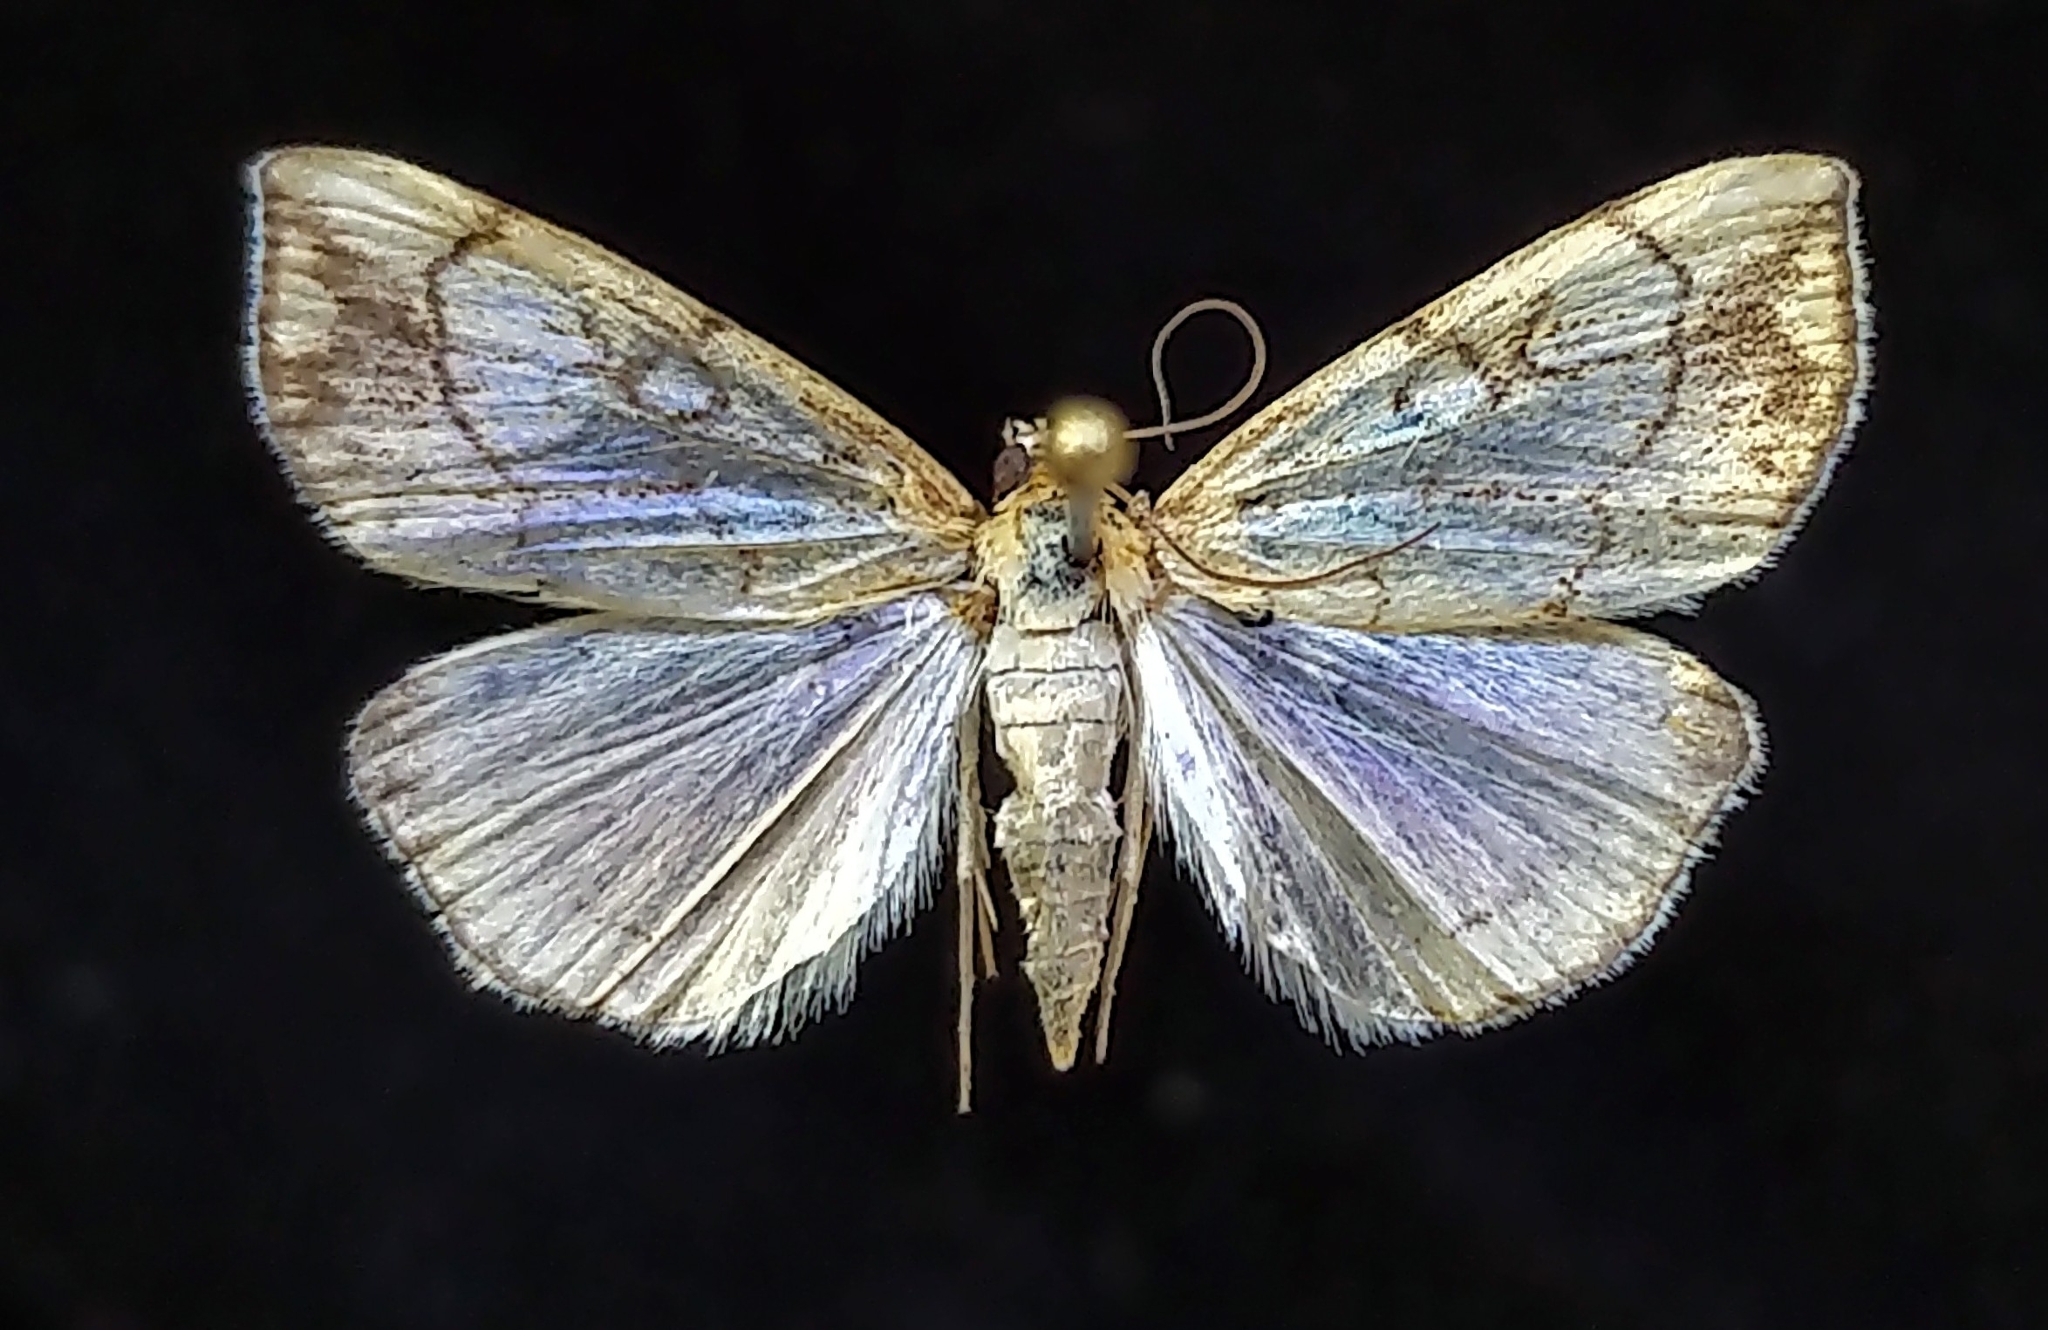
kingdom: Animalia
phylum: Arthropoda
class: Insecta
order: Lepidoptera
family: Crambidae
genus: Evergestis
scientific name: Evergestis pallidata
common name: Chequered pearl
